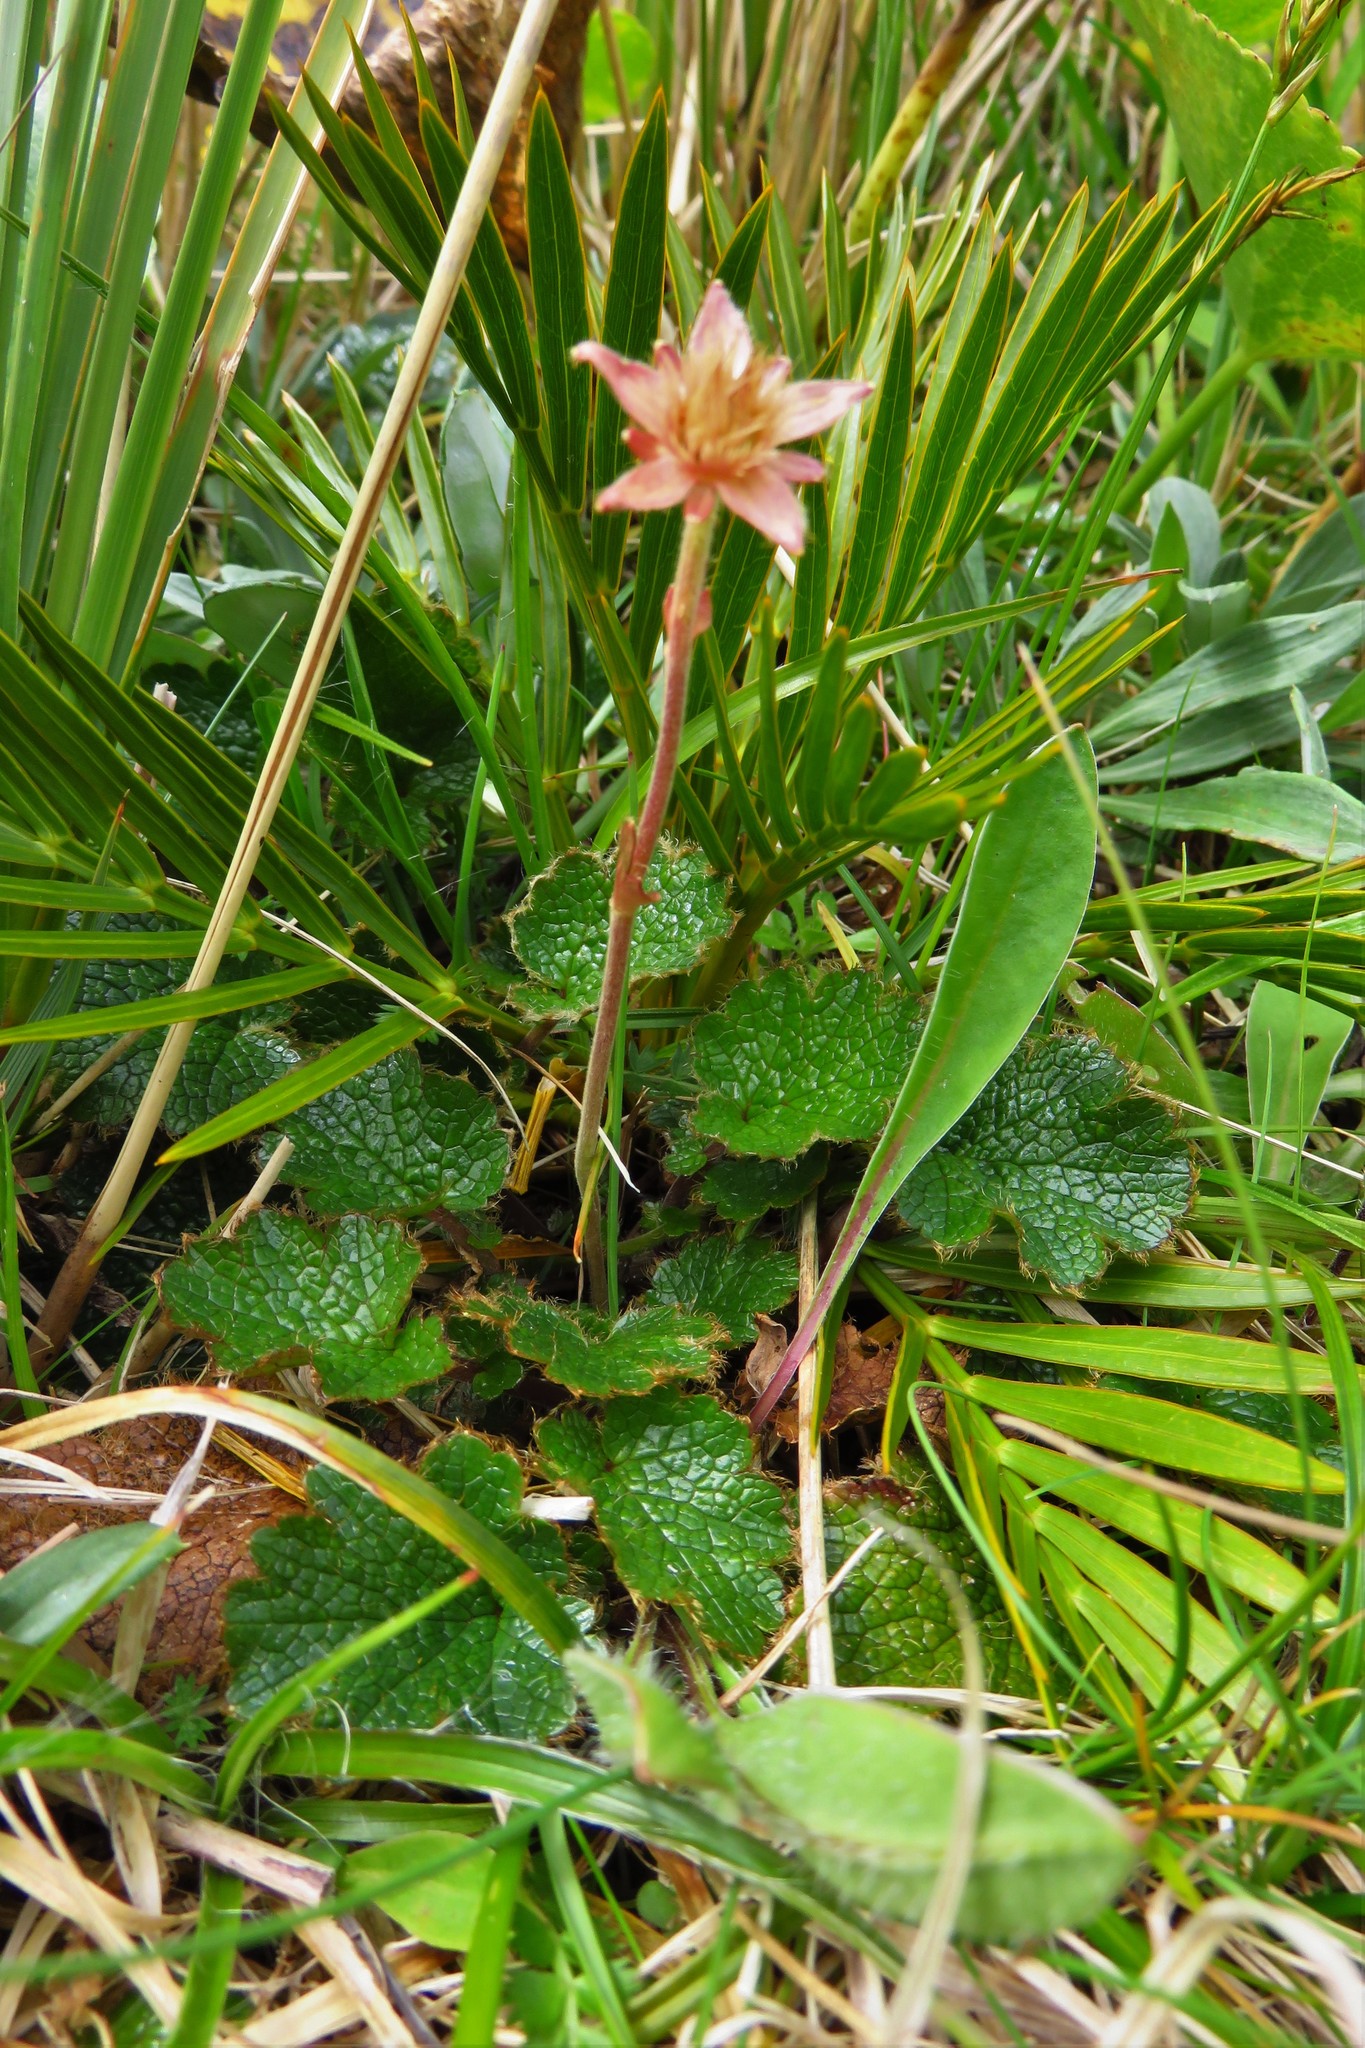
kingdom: Plantae
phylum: Tracheophyta
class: Magnoliopsida
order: Ranunculales
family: Ranunculaceae
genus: Anemonastrum
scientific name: Anemonastrum tenuicaule
